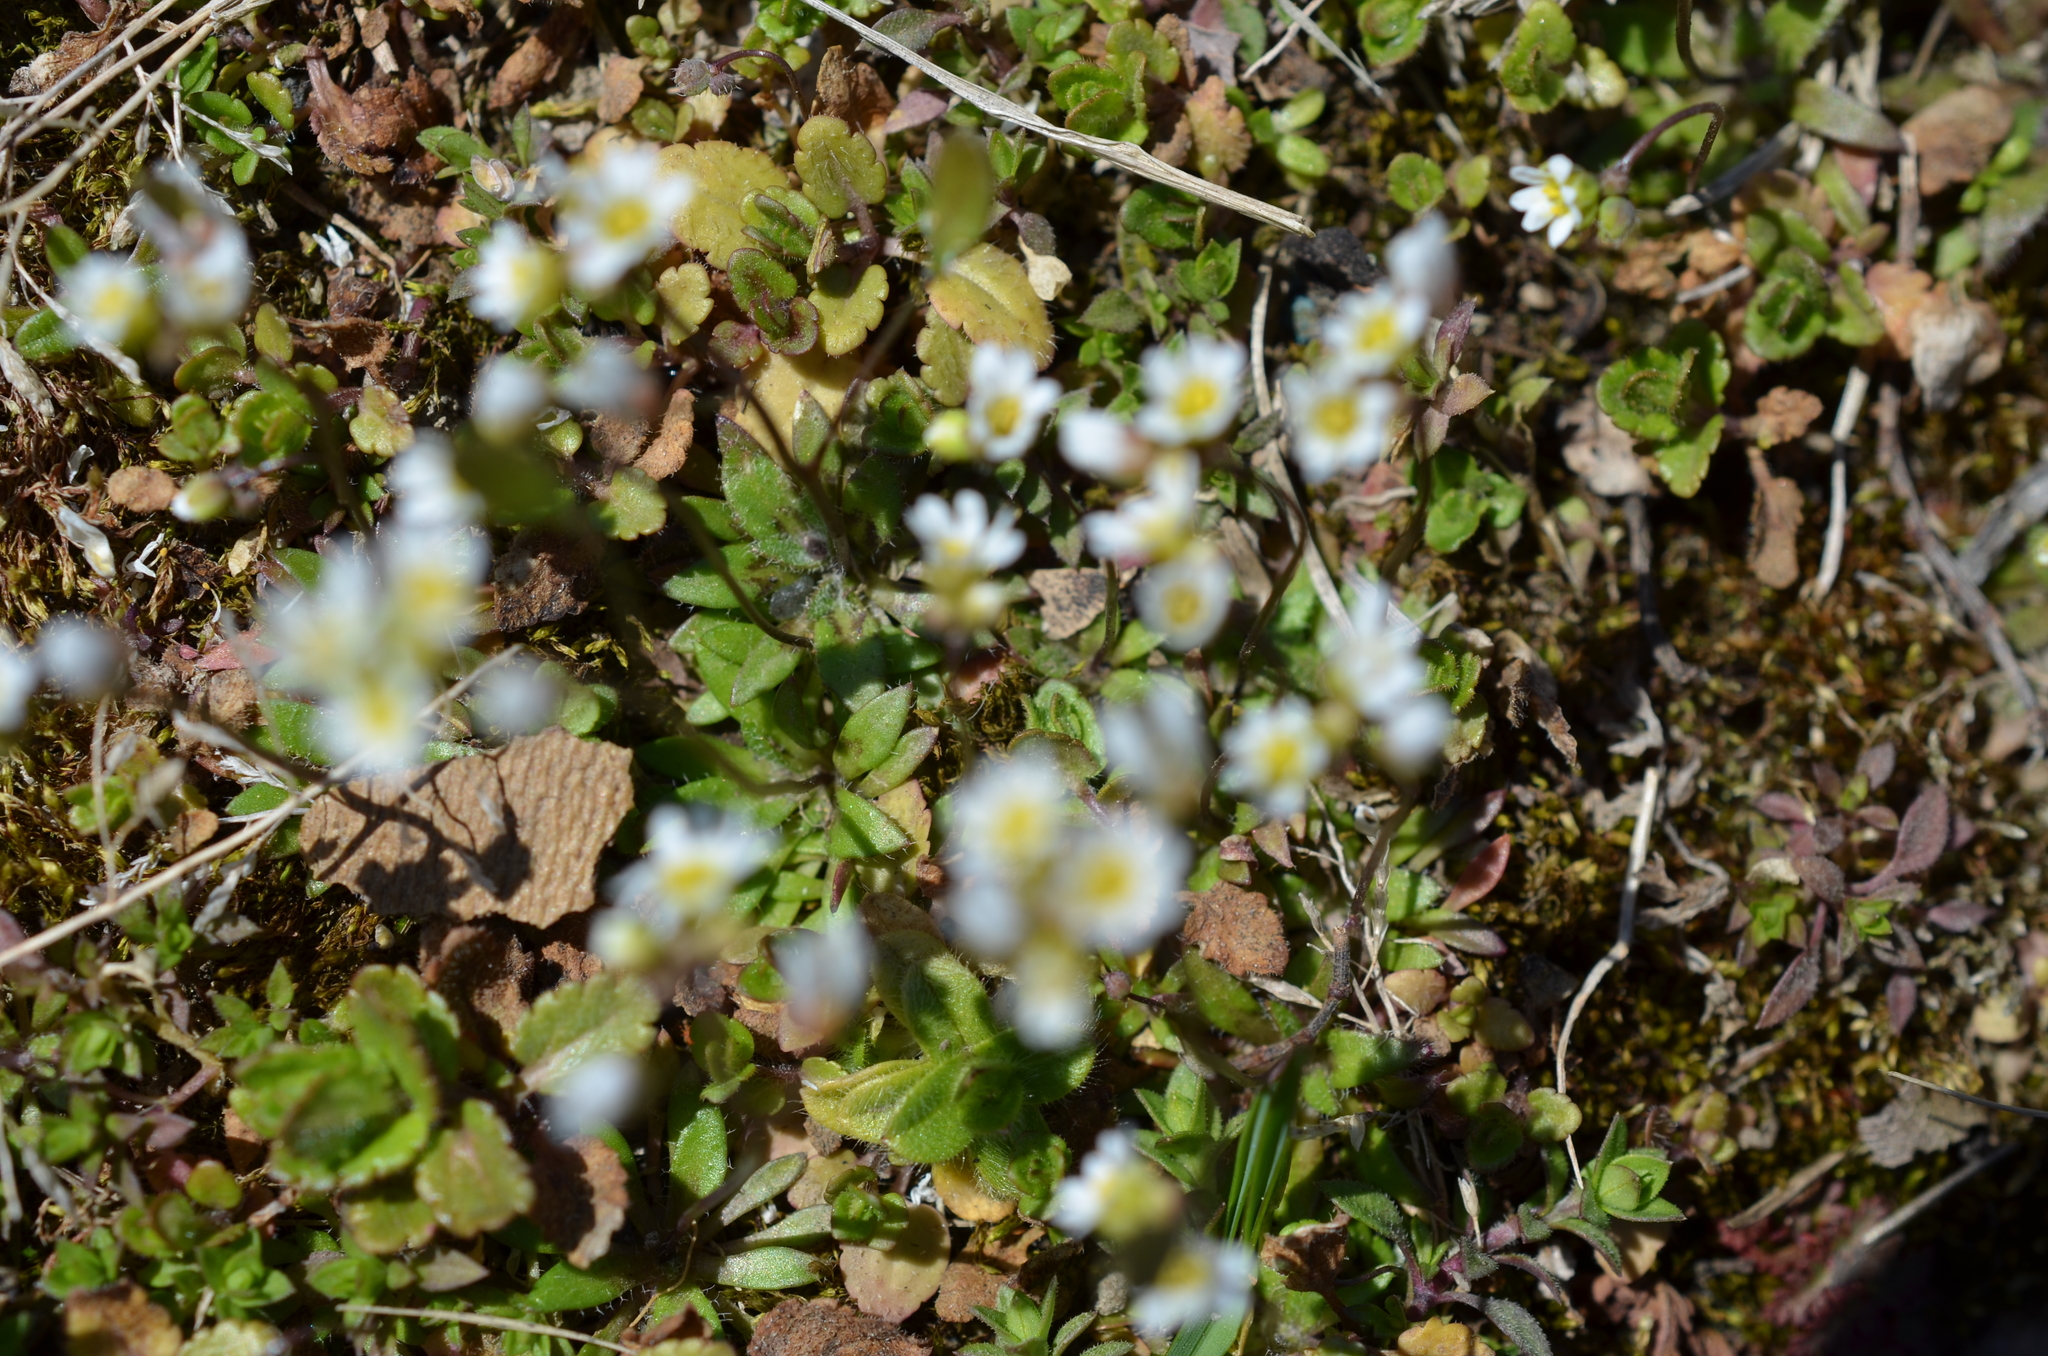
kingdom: Plantae
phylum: Tracheophyta
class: Magnoliopsida
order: Brassicales
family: Brassicaceae
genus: Draba
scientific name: Draba verna
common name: Spring draba
